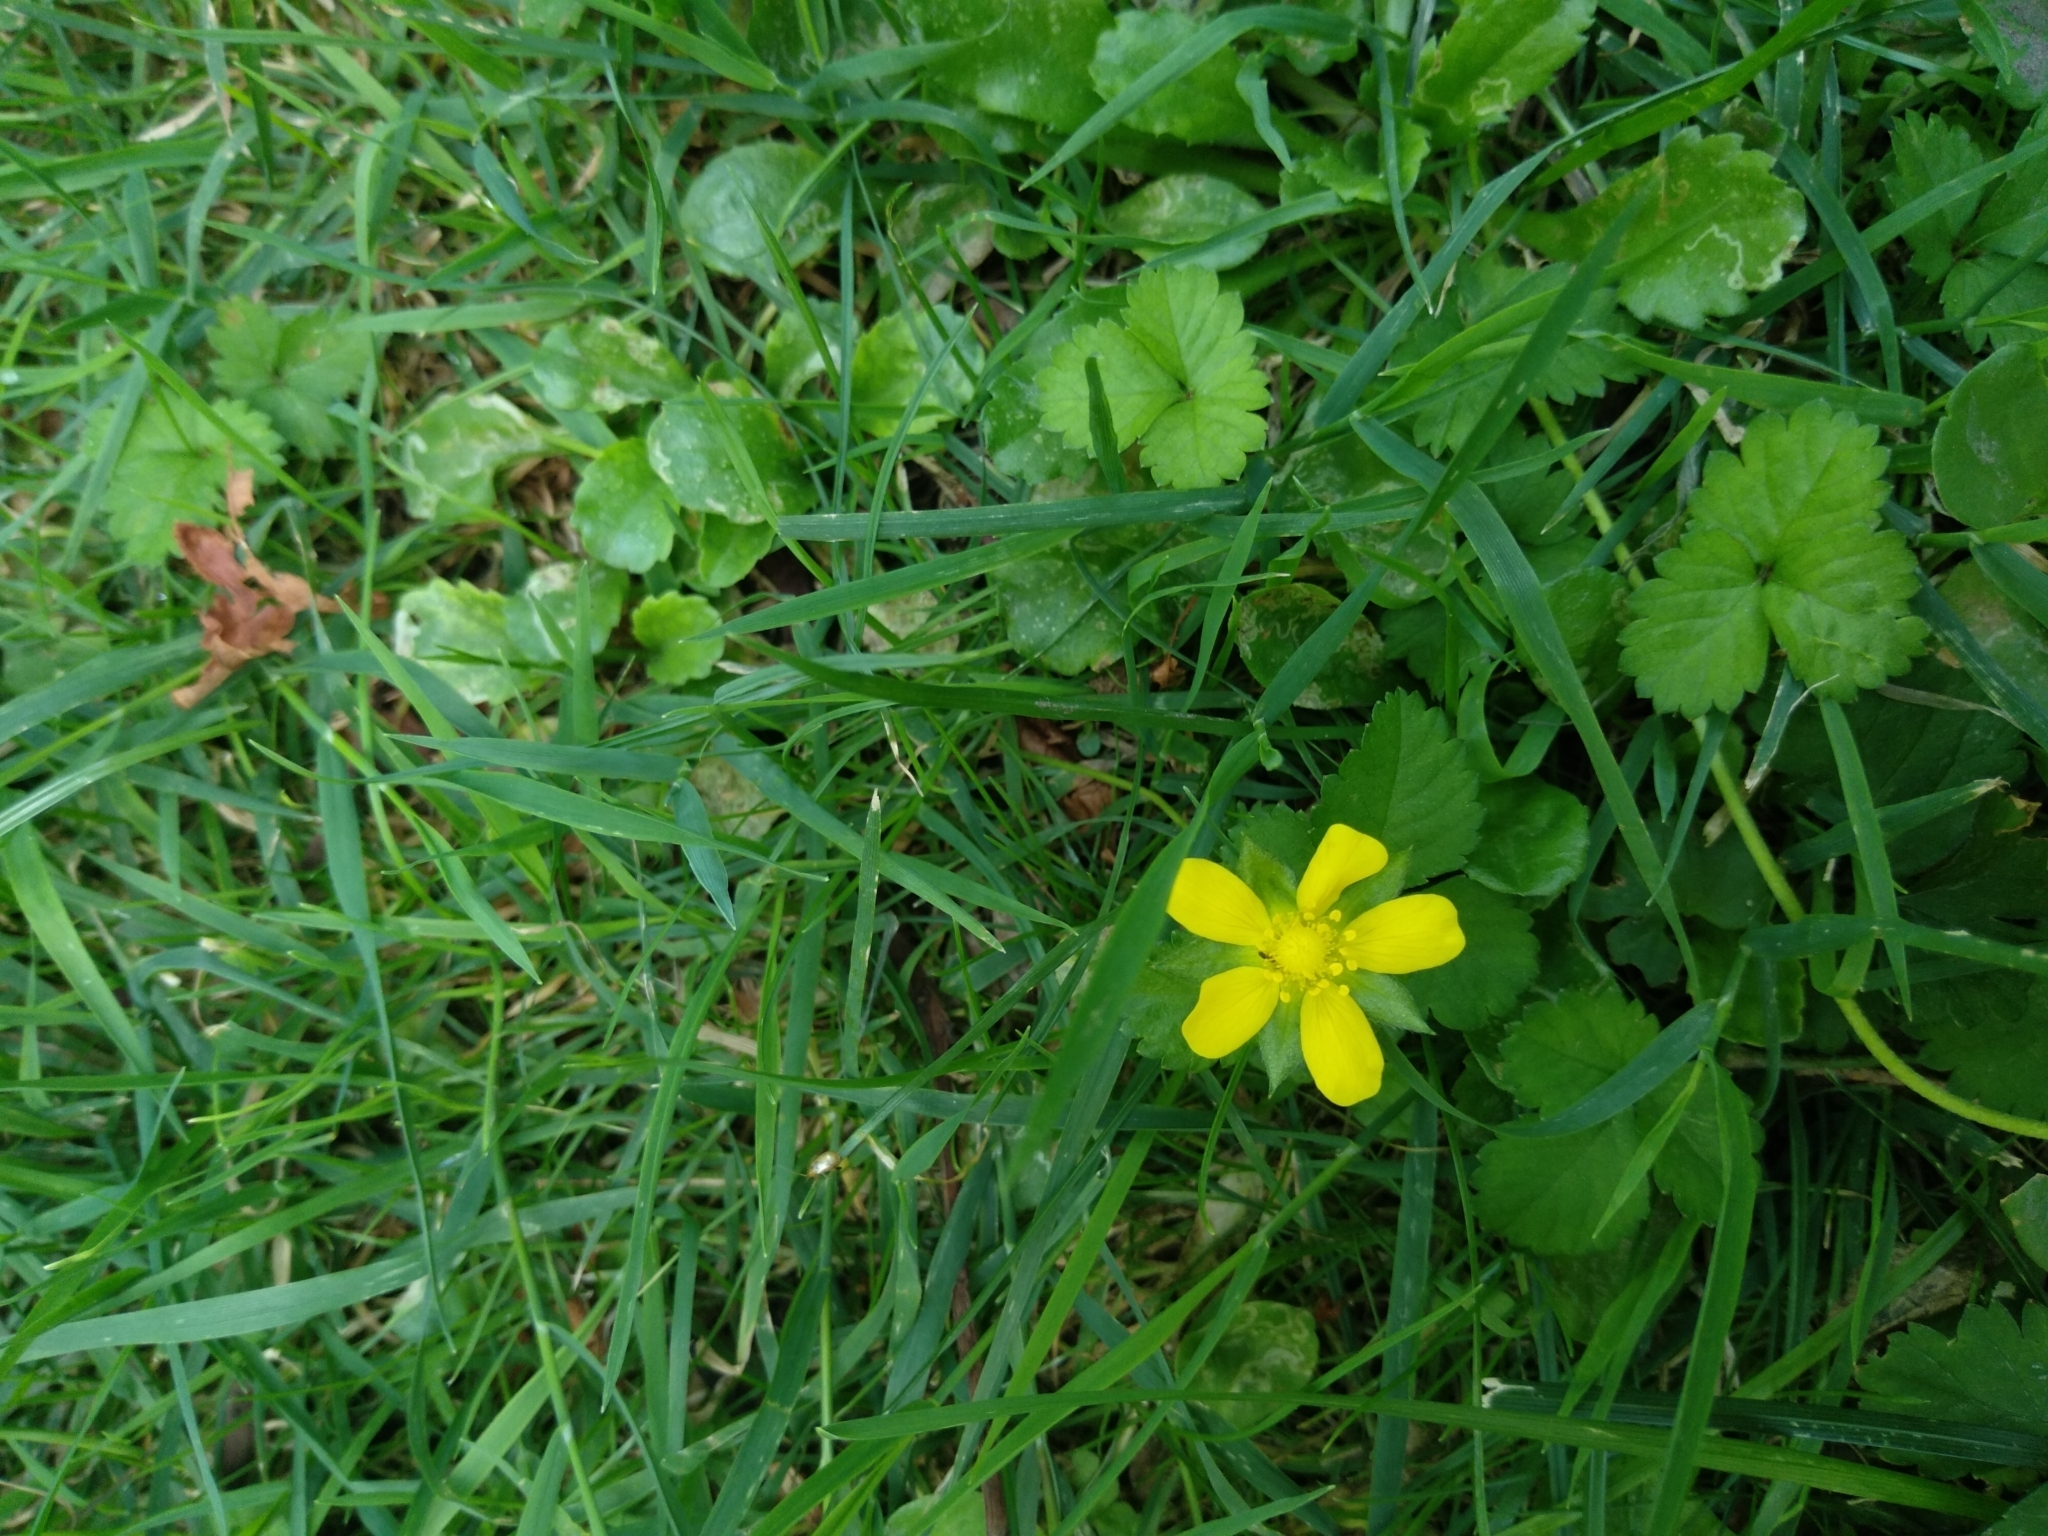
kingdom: Plantae
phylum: Tracheophyta
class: Magnoliopsida
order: Rosales
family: Rosaceae
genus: Potentilla
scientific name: Potentilla indica
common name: Yellow-flowered strawberry
